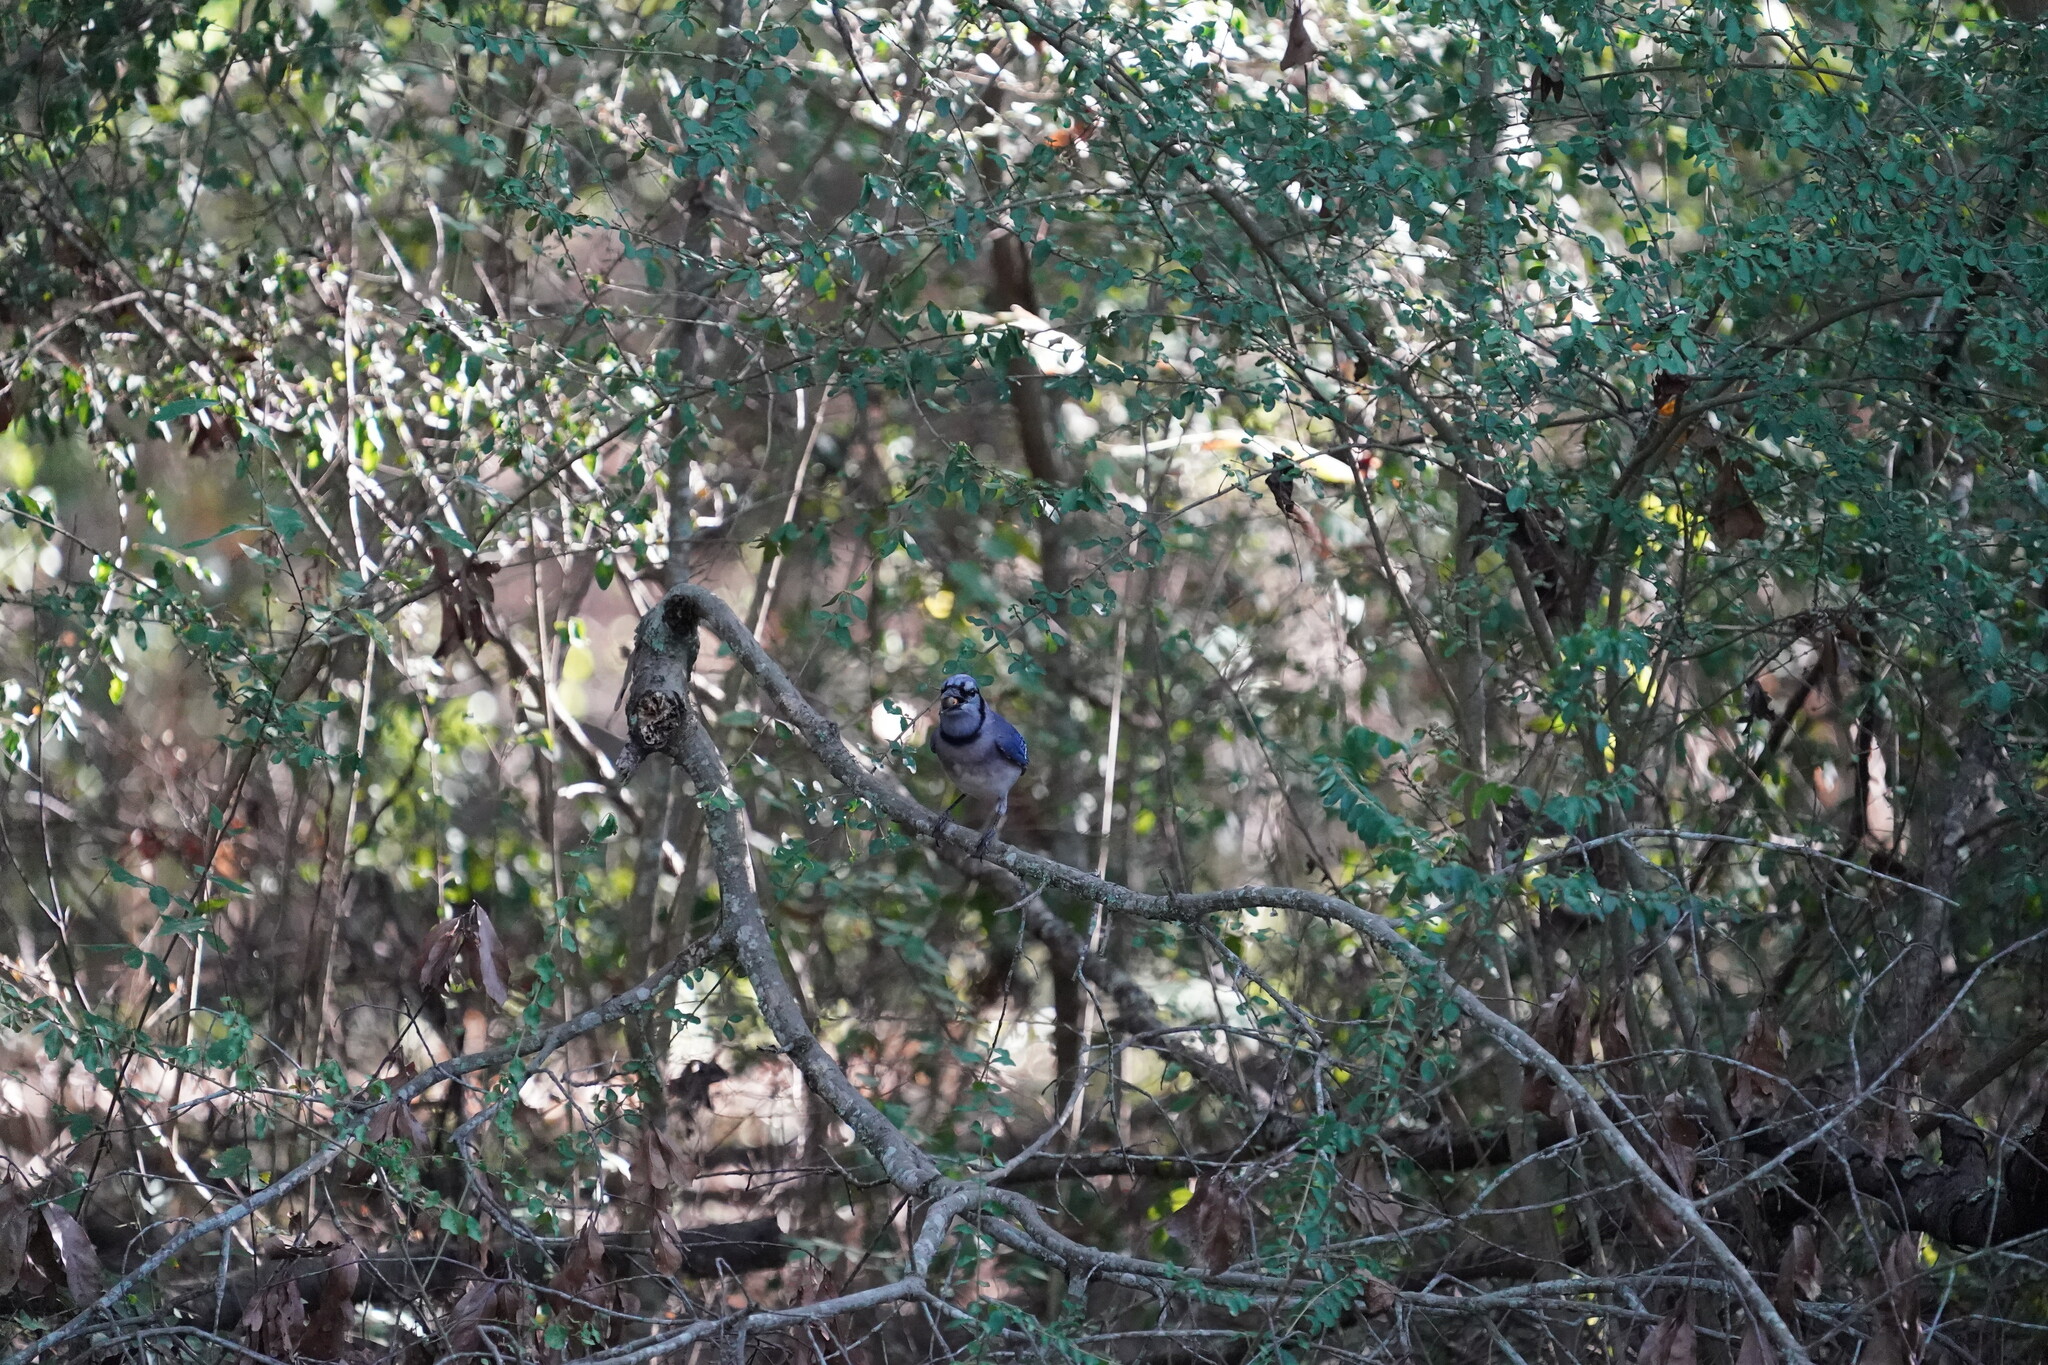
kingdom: Animalia
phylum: Chordata
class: Aves
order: Passeriformes
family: Corvidae
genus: Cyanocitta
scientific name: Cyanocitta cristata
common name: Blue jay
